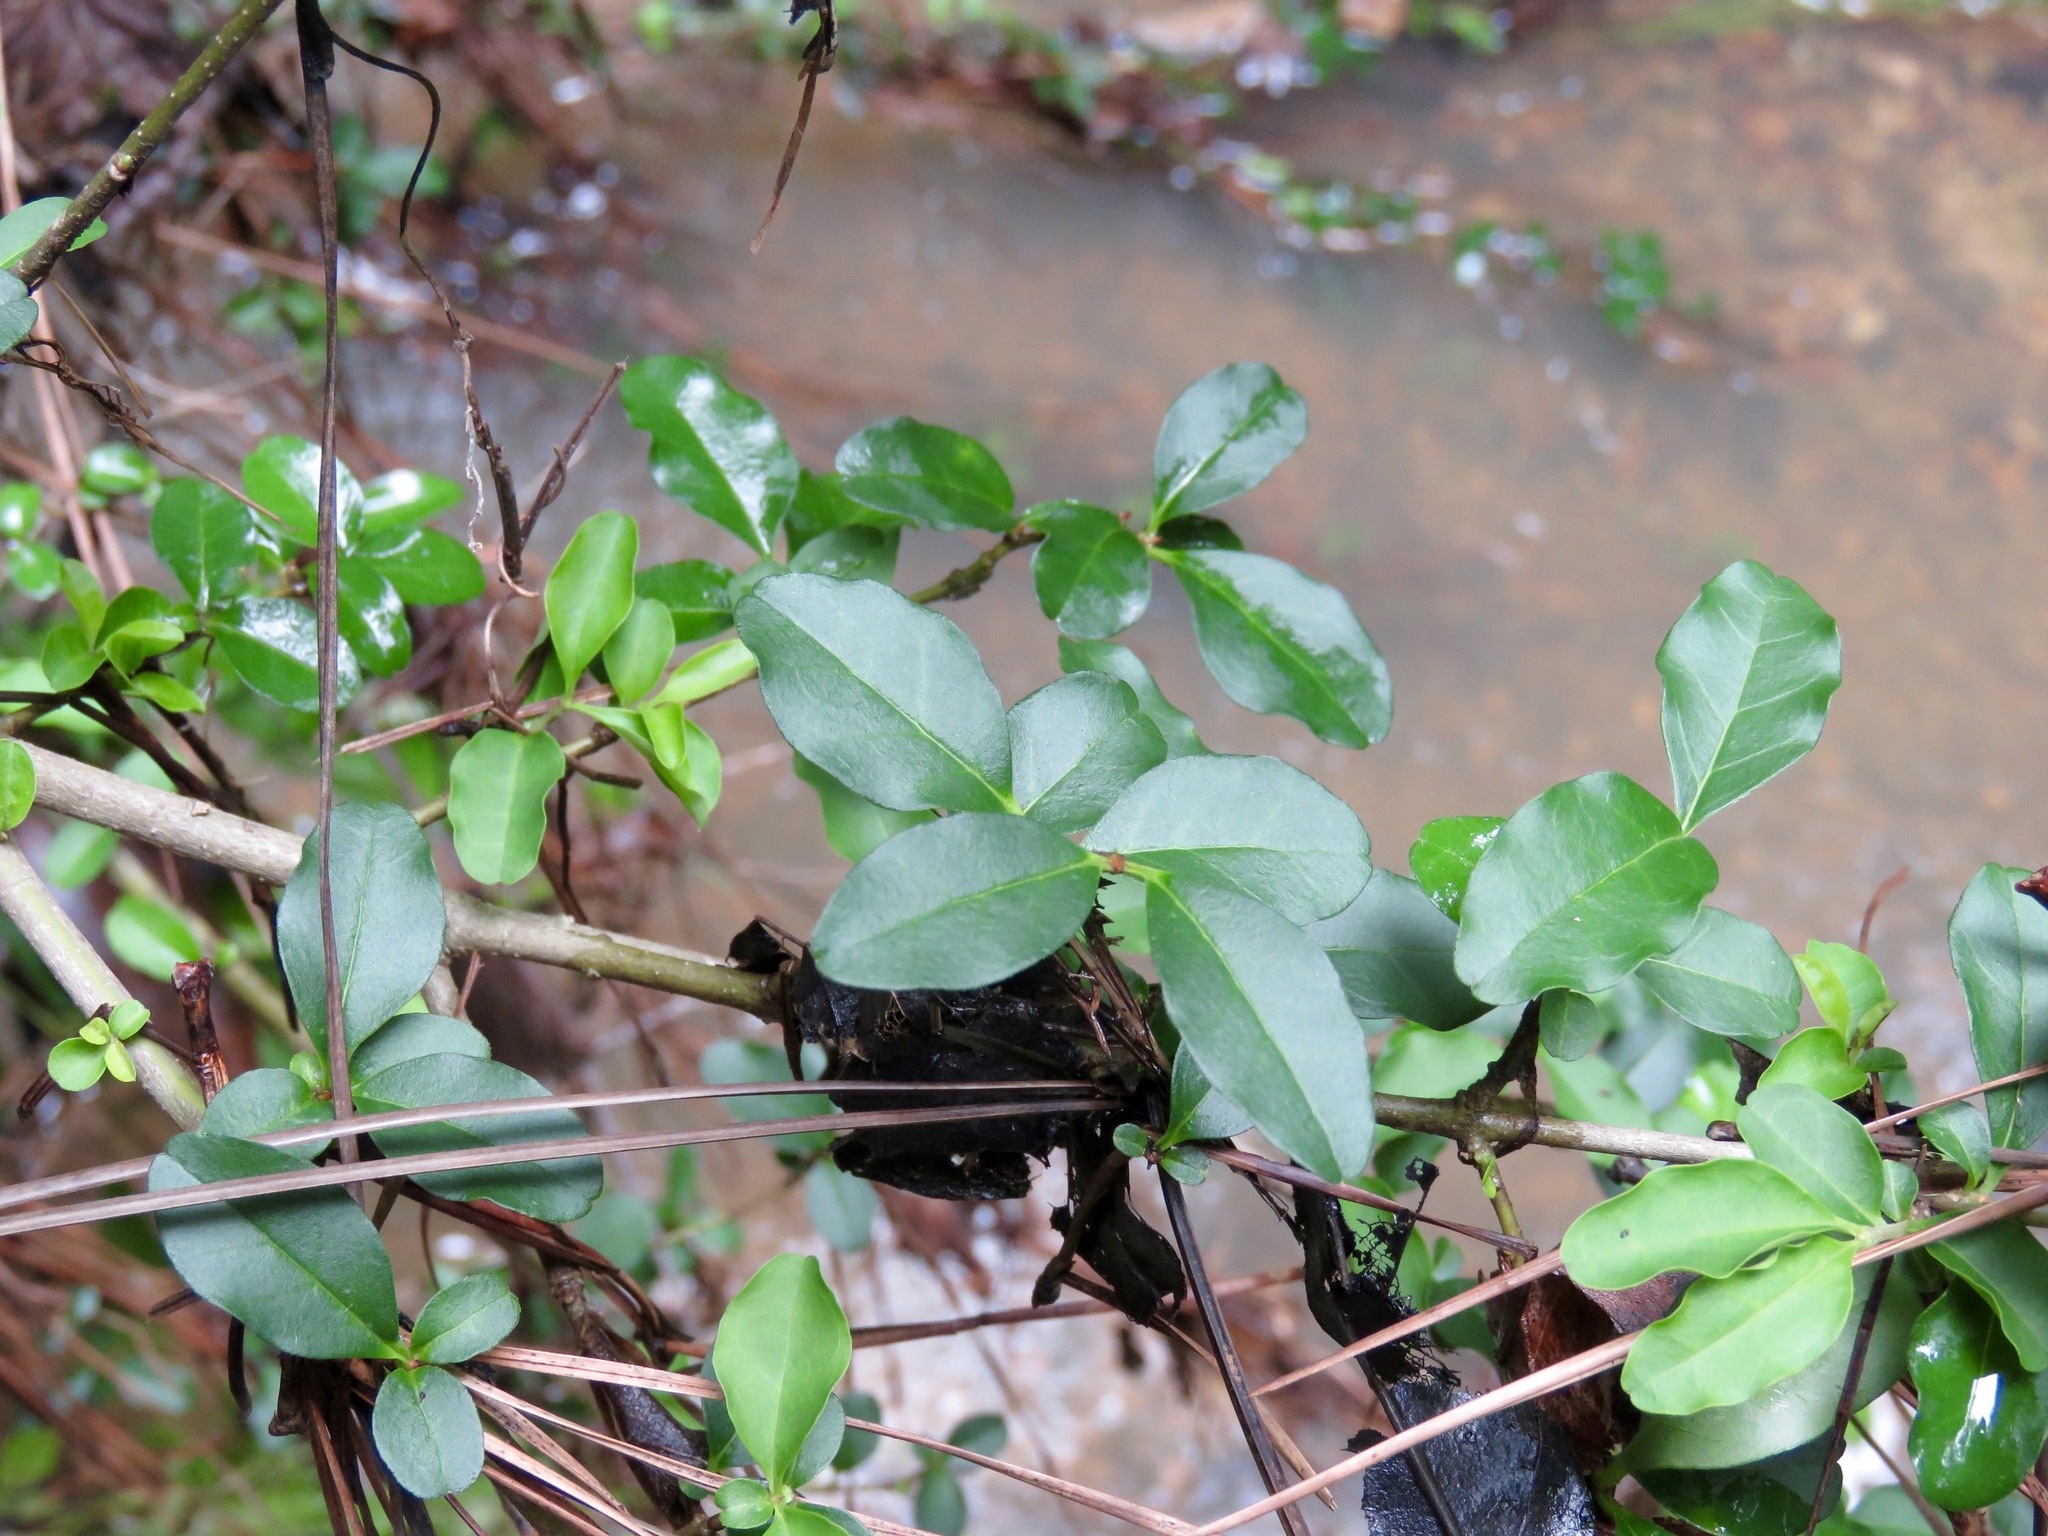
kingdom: Plantae
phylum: Tracheophyta
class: Magnoliopsida
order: Lamiales
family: Oleaceae
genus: Ligustrum
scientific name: Ligustrum sinense
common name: Chinese privet
